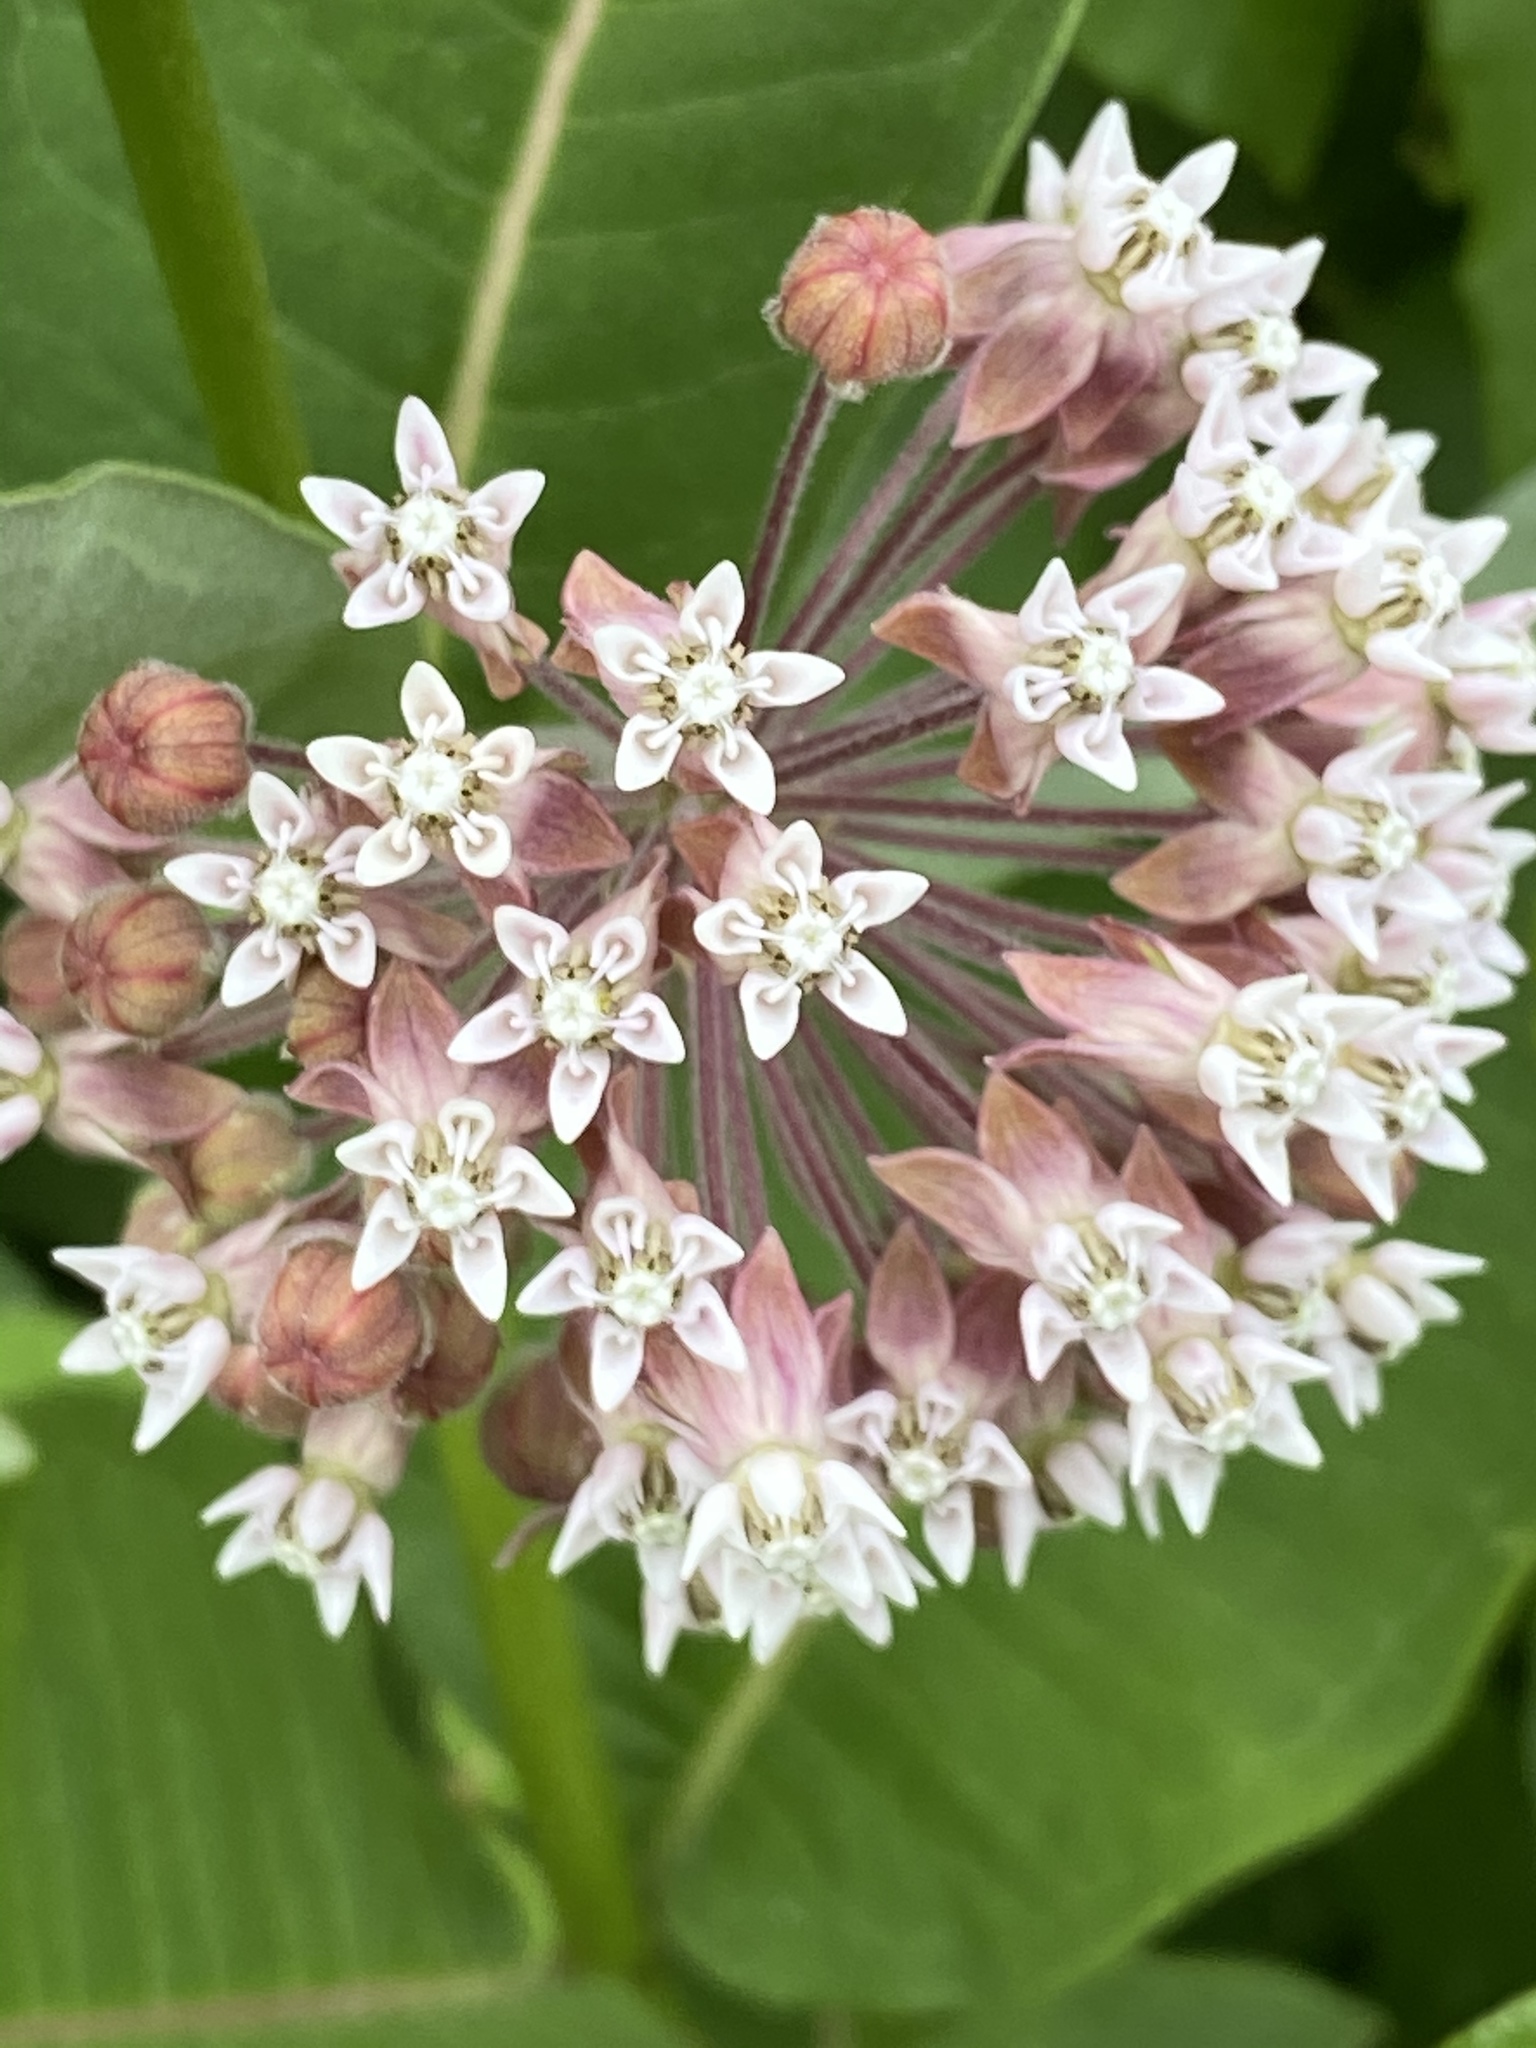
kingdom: Plantae
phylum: Tracheophyta
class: Magnoliopsida
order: Gentianales
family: Apocynaceae
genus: Asclepias
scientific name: Asclepias syriaca
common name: Common milkweed
